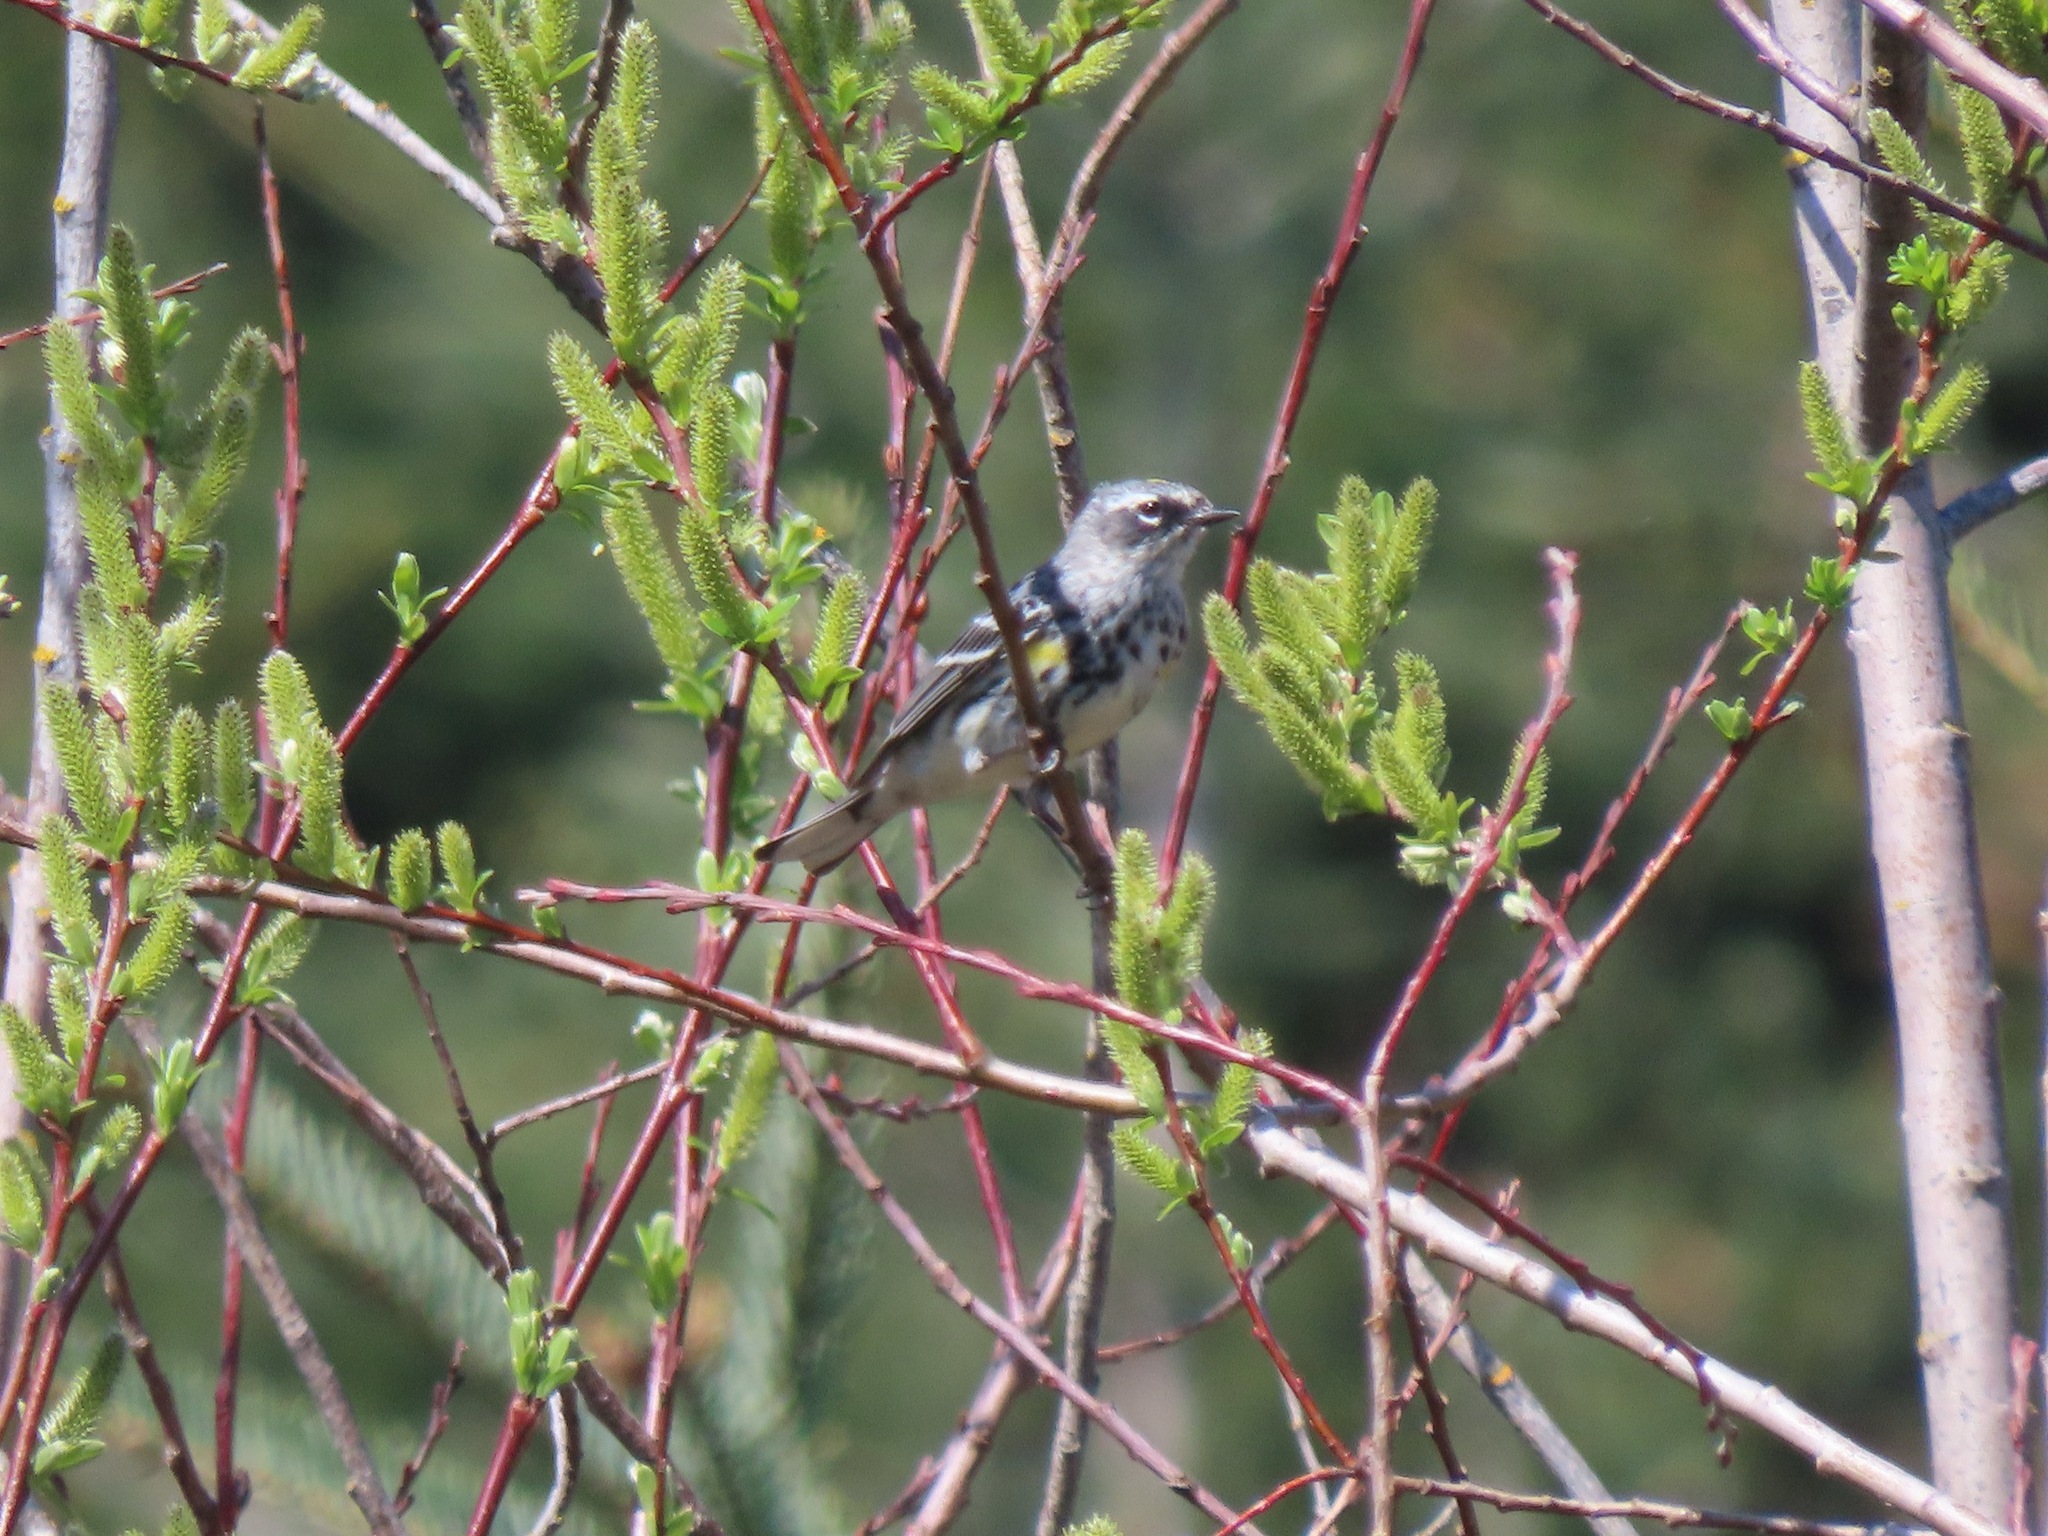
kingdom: Animalia
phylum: Chordata
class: Aves
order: Passeriformes
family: Parulidae
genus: Setophaga
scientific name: Setophaga coronata
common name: Myrtle warbler
